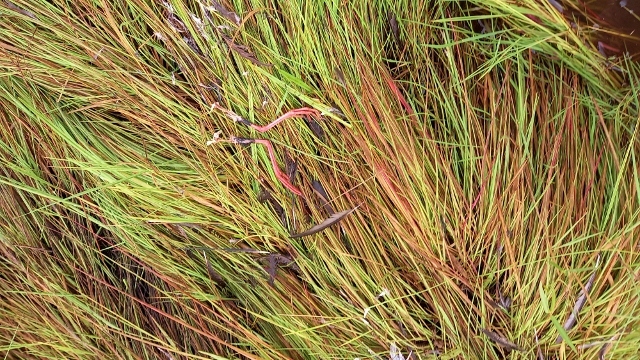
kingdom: Animalia
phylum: Chordata
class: Aves
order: Gruiformes
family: Rallidae
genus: Amaurornis
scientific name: Amaurornis flavirostra
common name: Black crake
